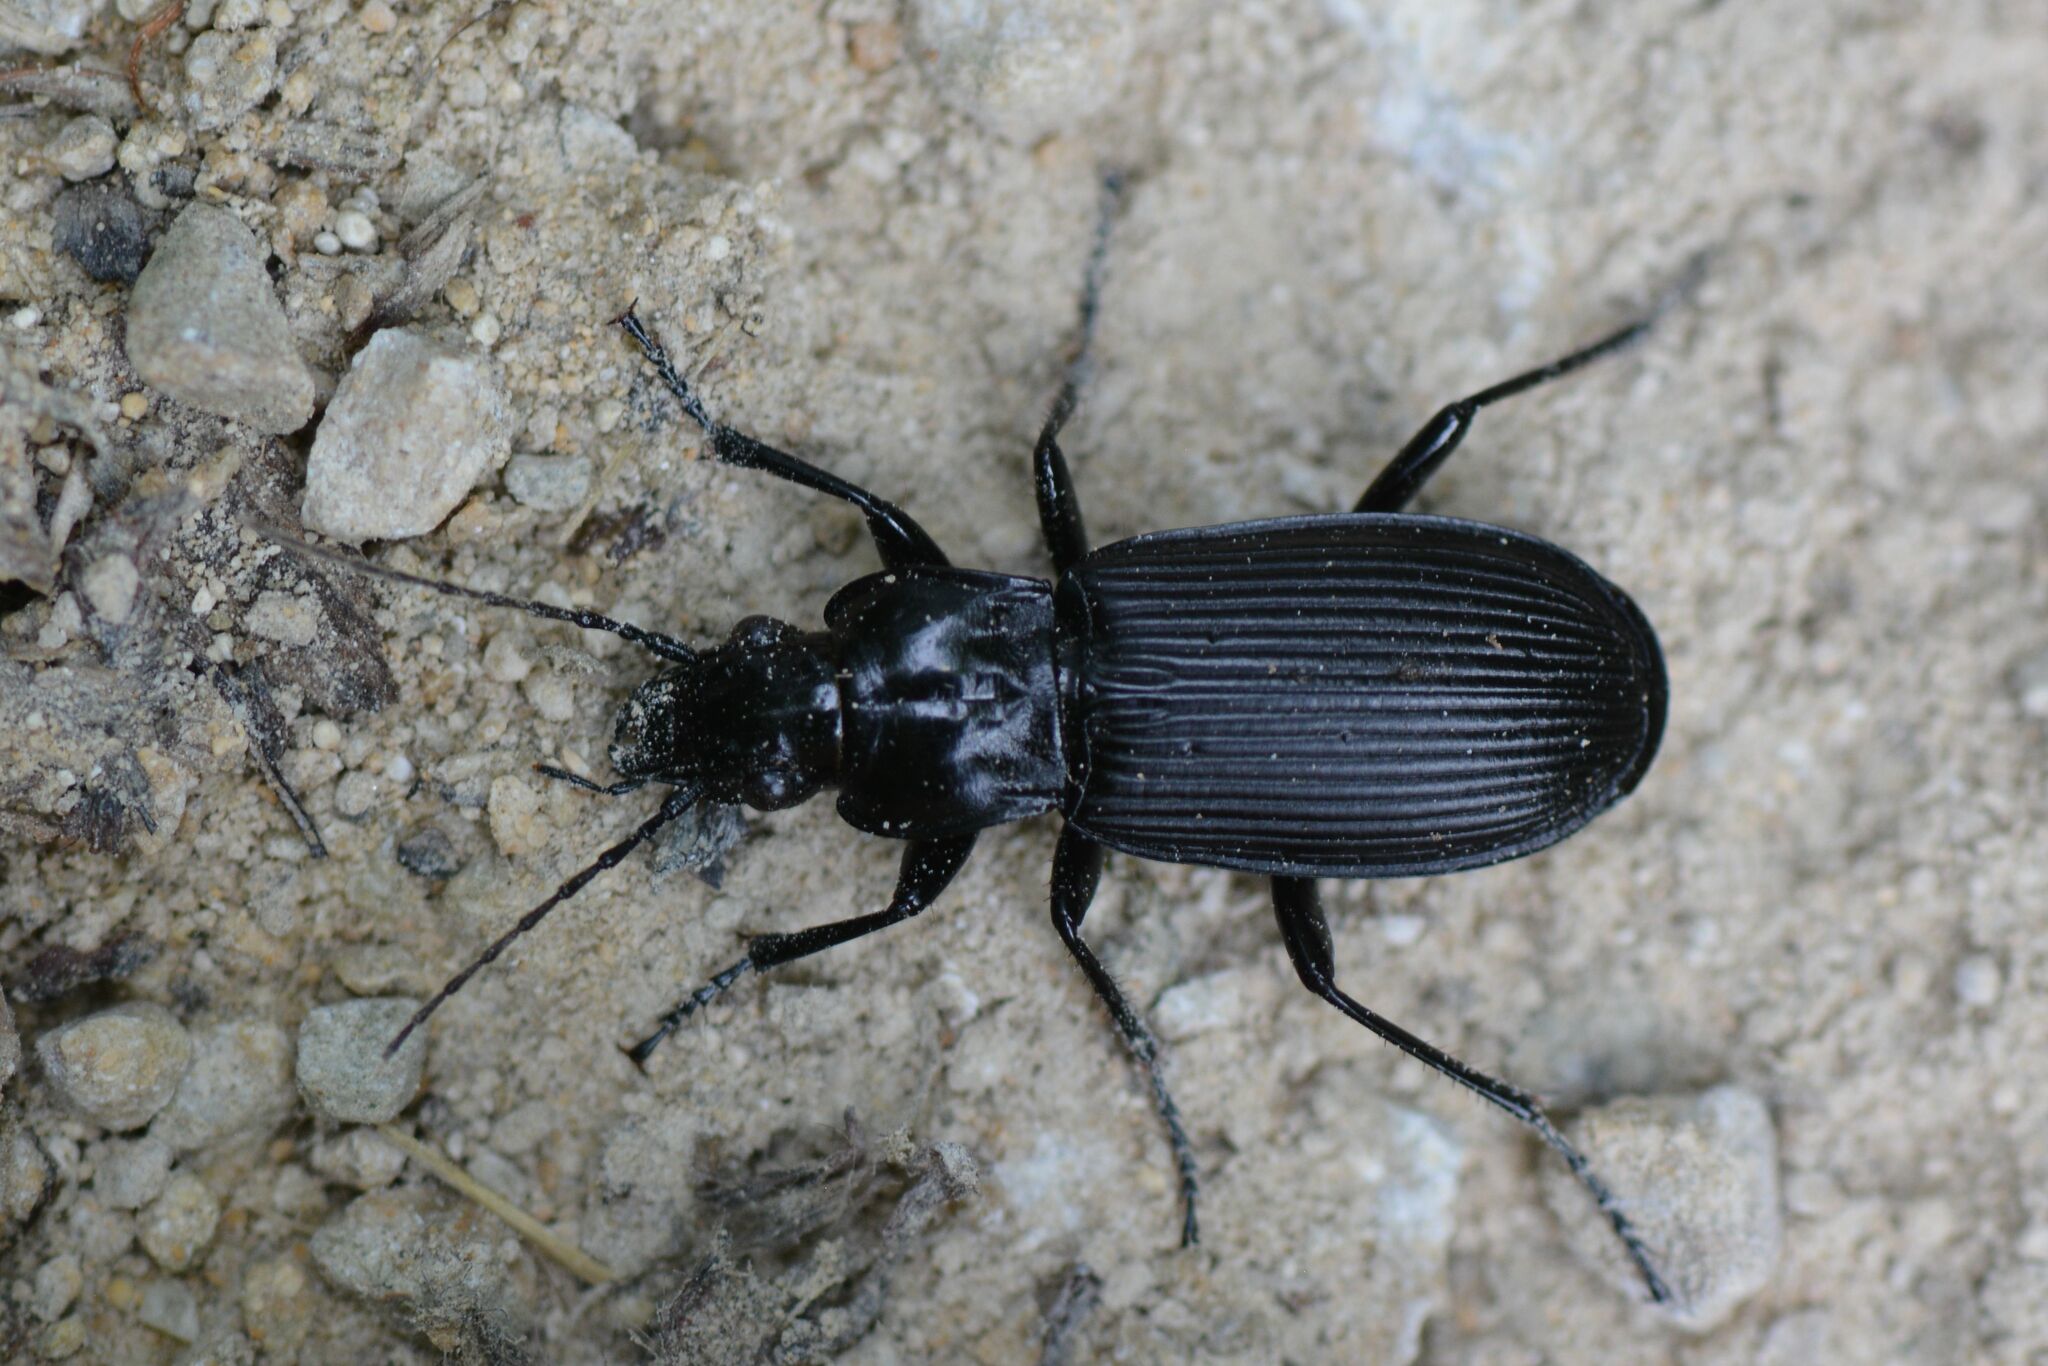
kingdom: Animalia
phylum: Arthropoda
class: Insecta
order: Coleoptera
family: Carabidae
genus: Pterostichus
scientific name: Pterostichus niger
